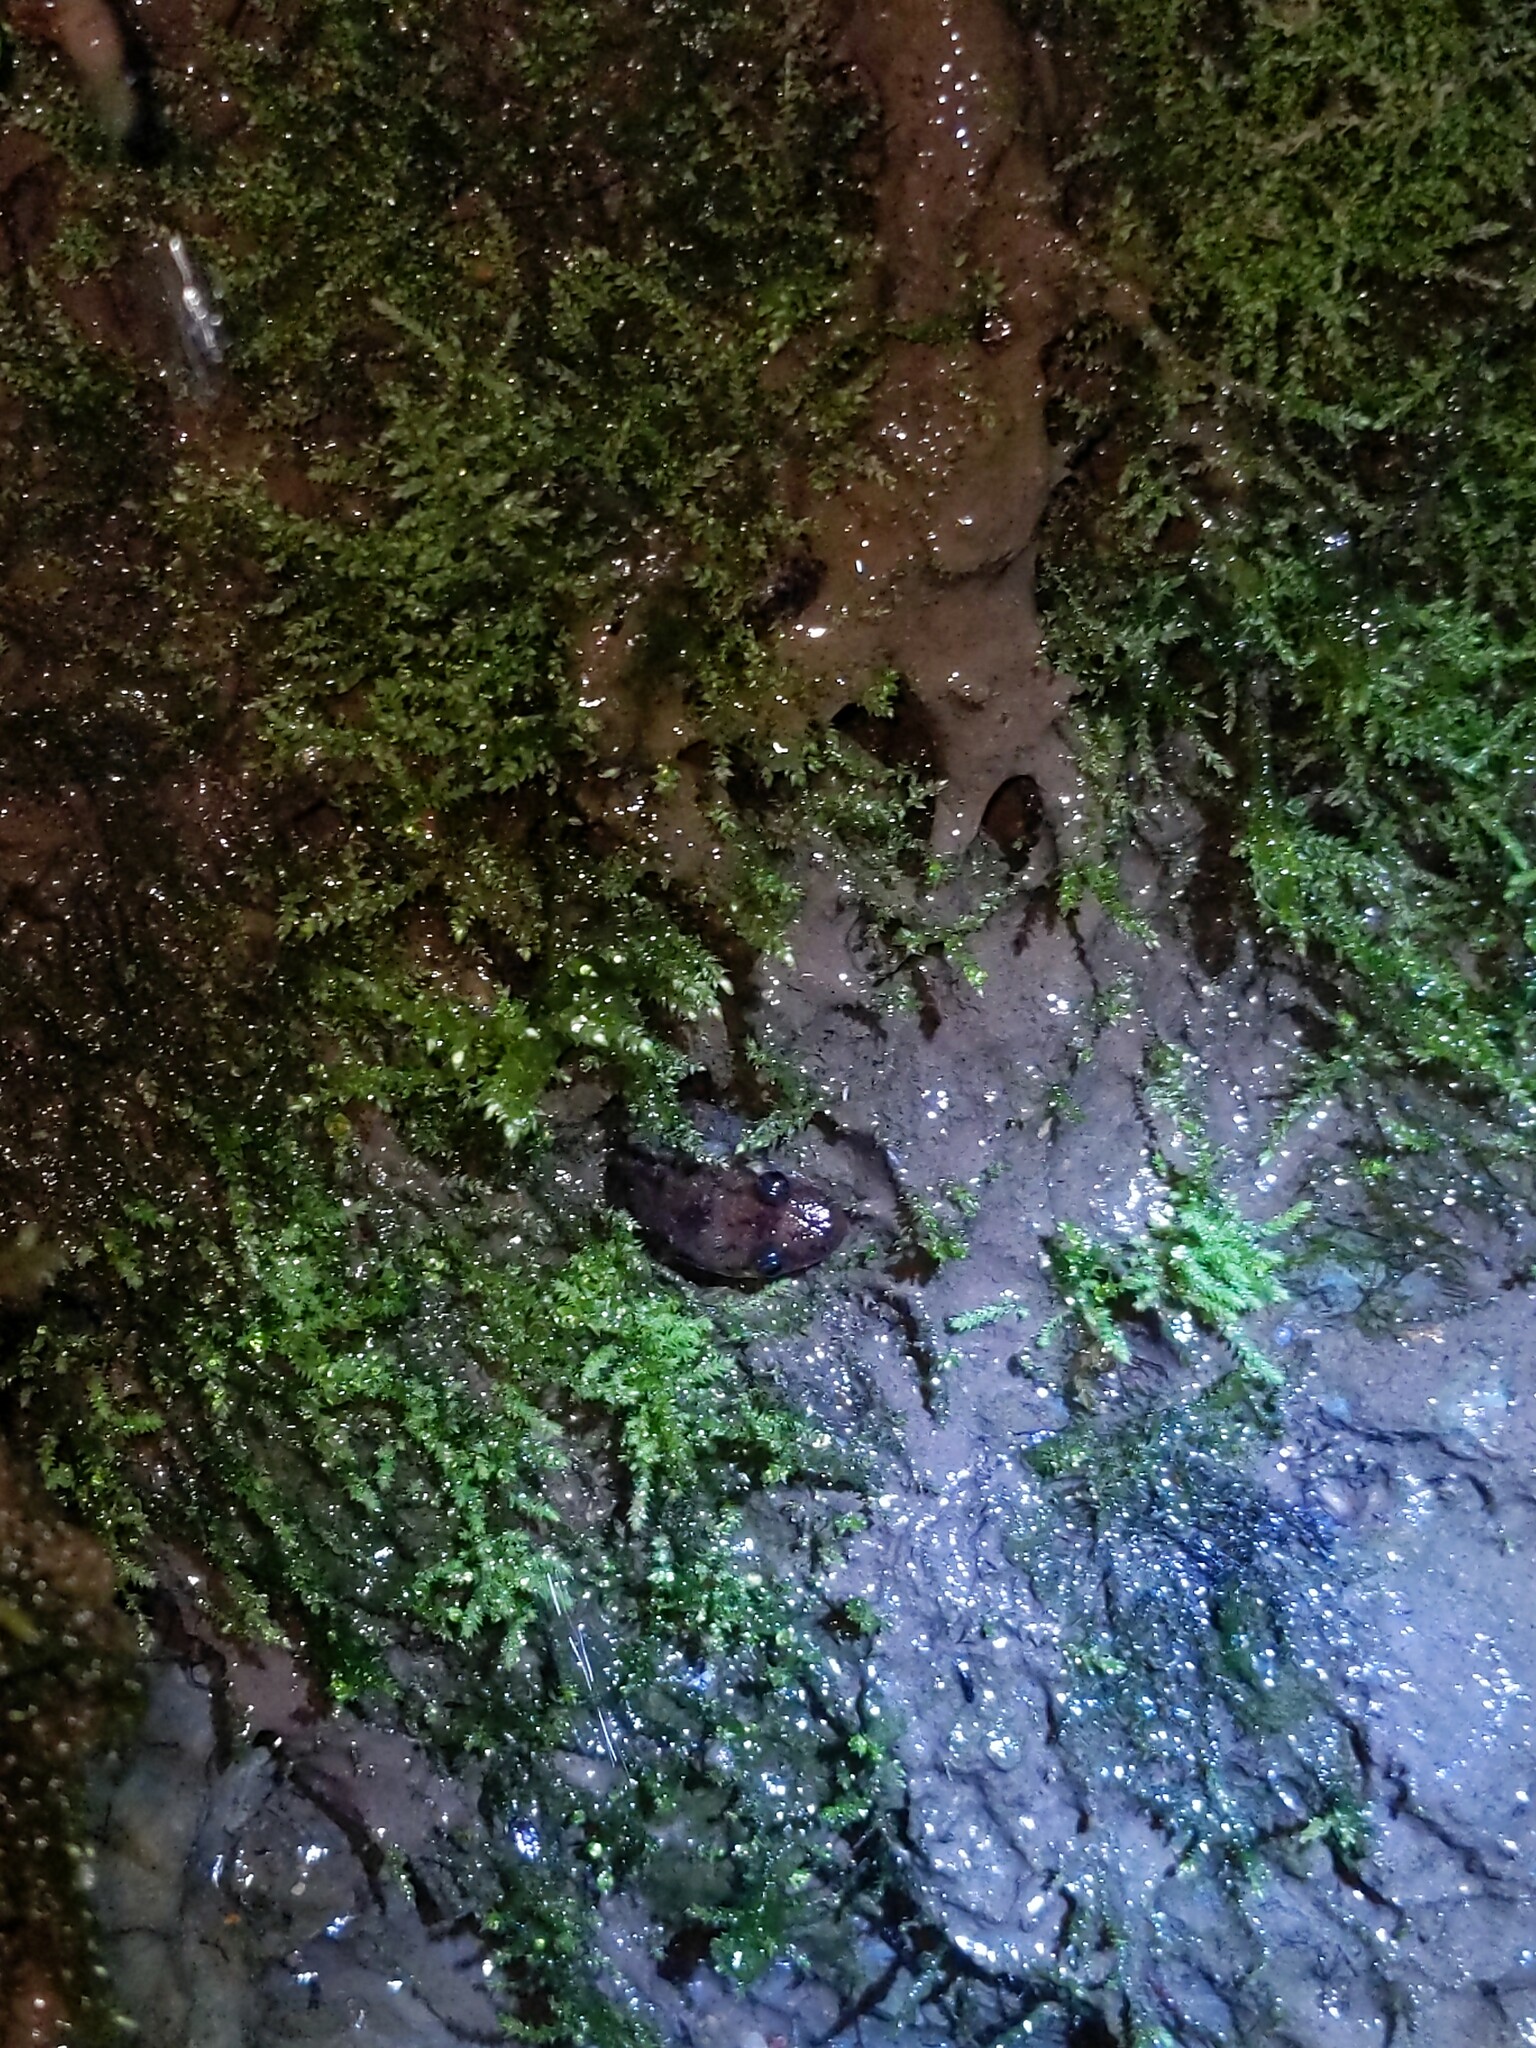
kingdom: Animalia
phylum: Chordata
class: Amphibia
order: Caudata
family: Plethodontidae
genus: Desmognathus
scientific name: Desmognathus monticola
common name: Seal salamander
